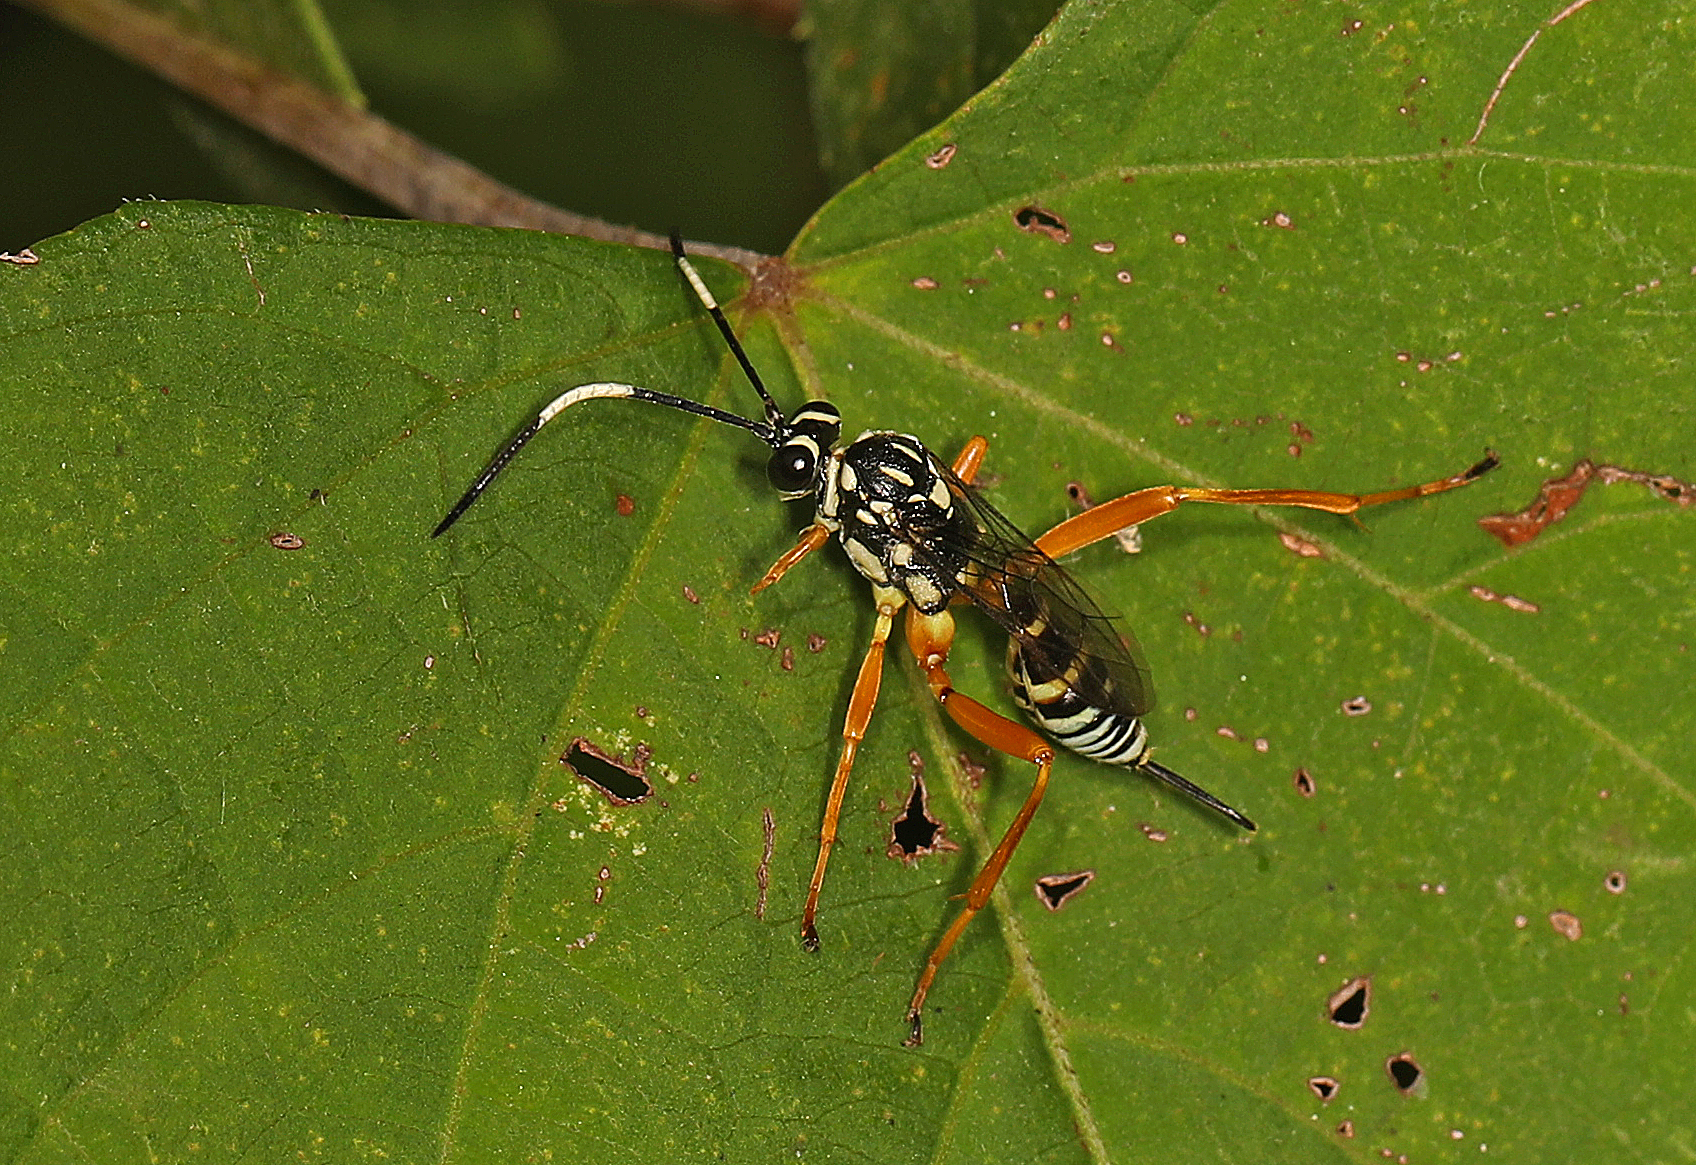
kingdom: Animalia
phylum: Arthropoda
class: Insecta
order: Hymenoptera
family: Ichneumonidae
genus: Baryceros
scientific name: Baryceros texanus
